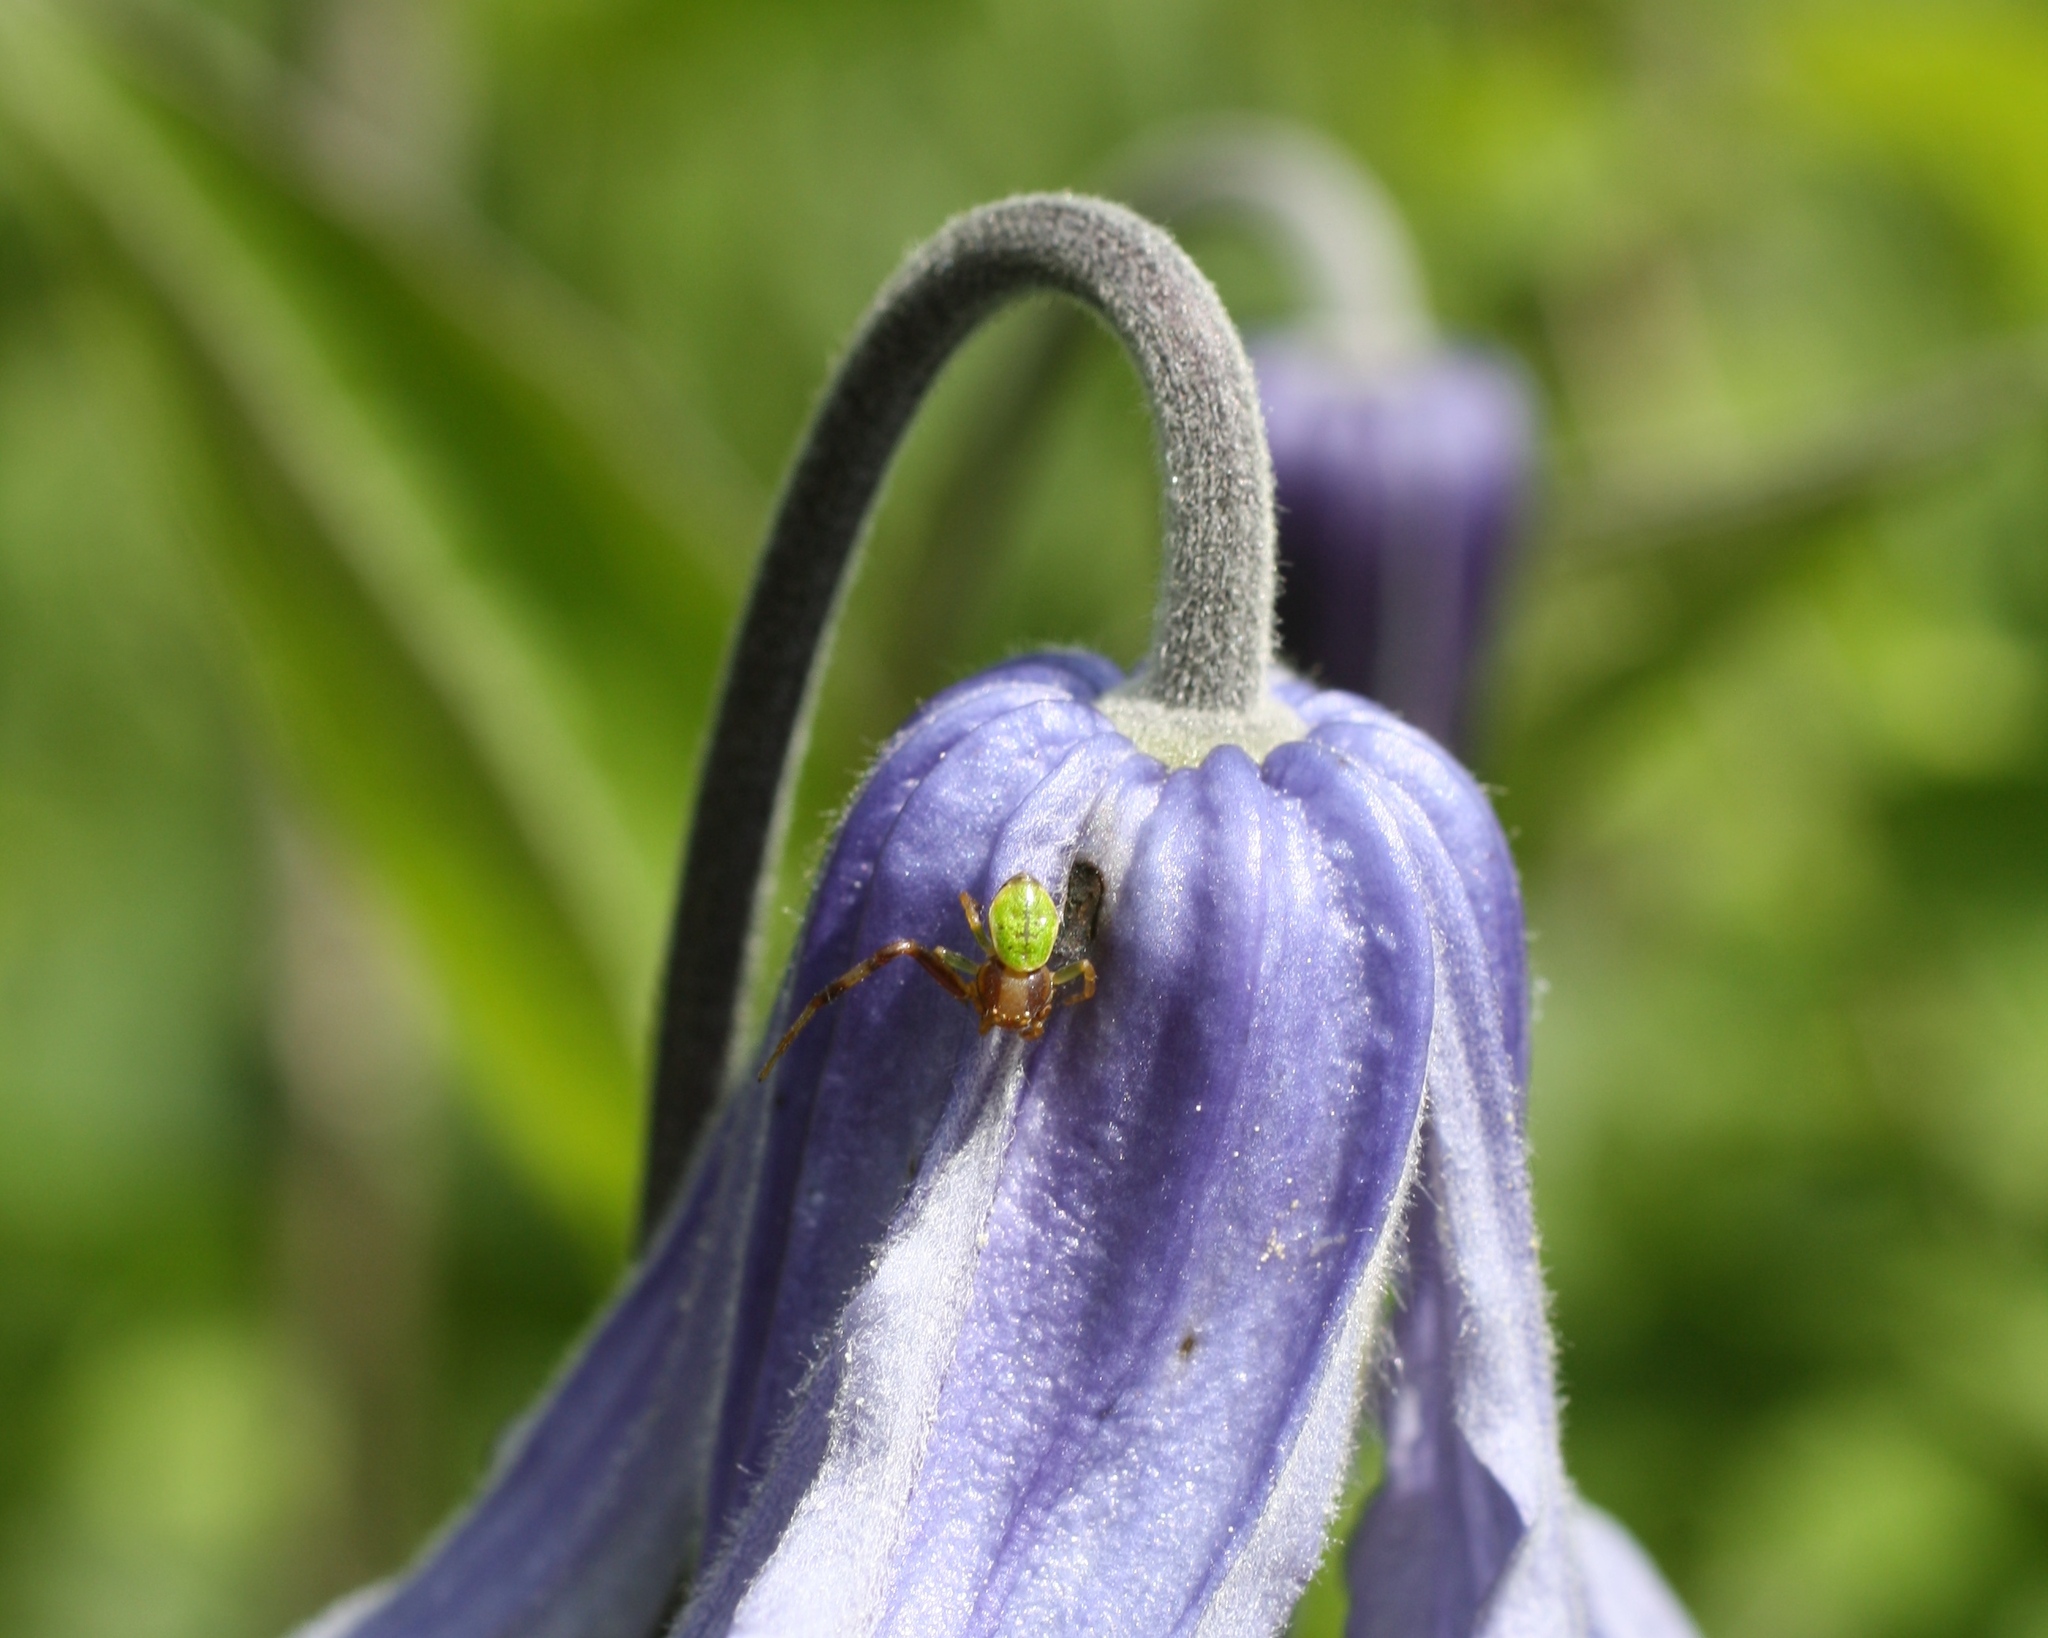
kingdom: Animalia
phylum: Arthropoda
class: Arachnida
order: Araneae
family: Thomisidae
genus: Ebrechtella
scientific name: Ebrechtella tricuspidata
